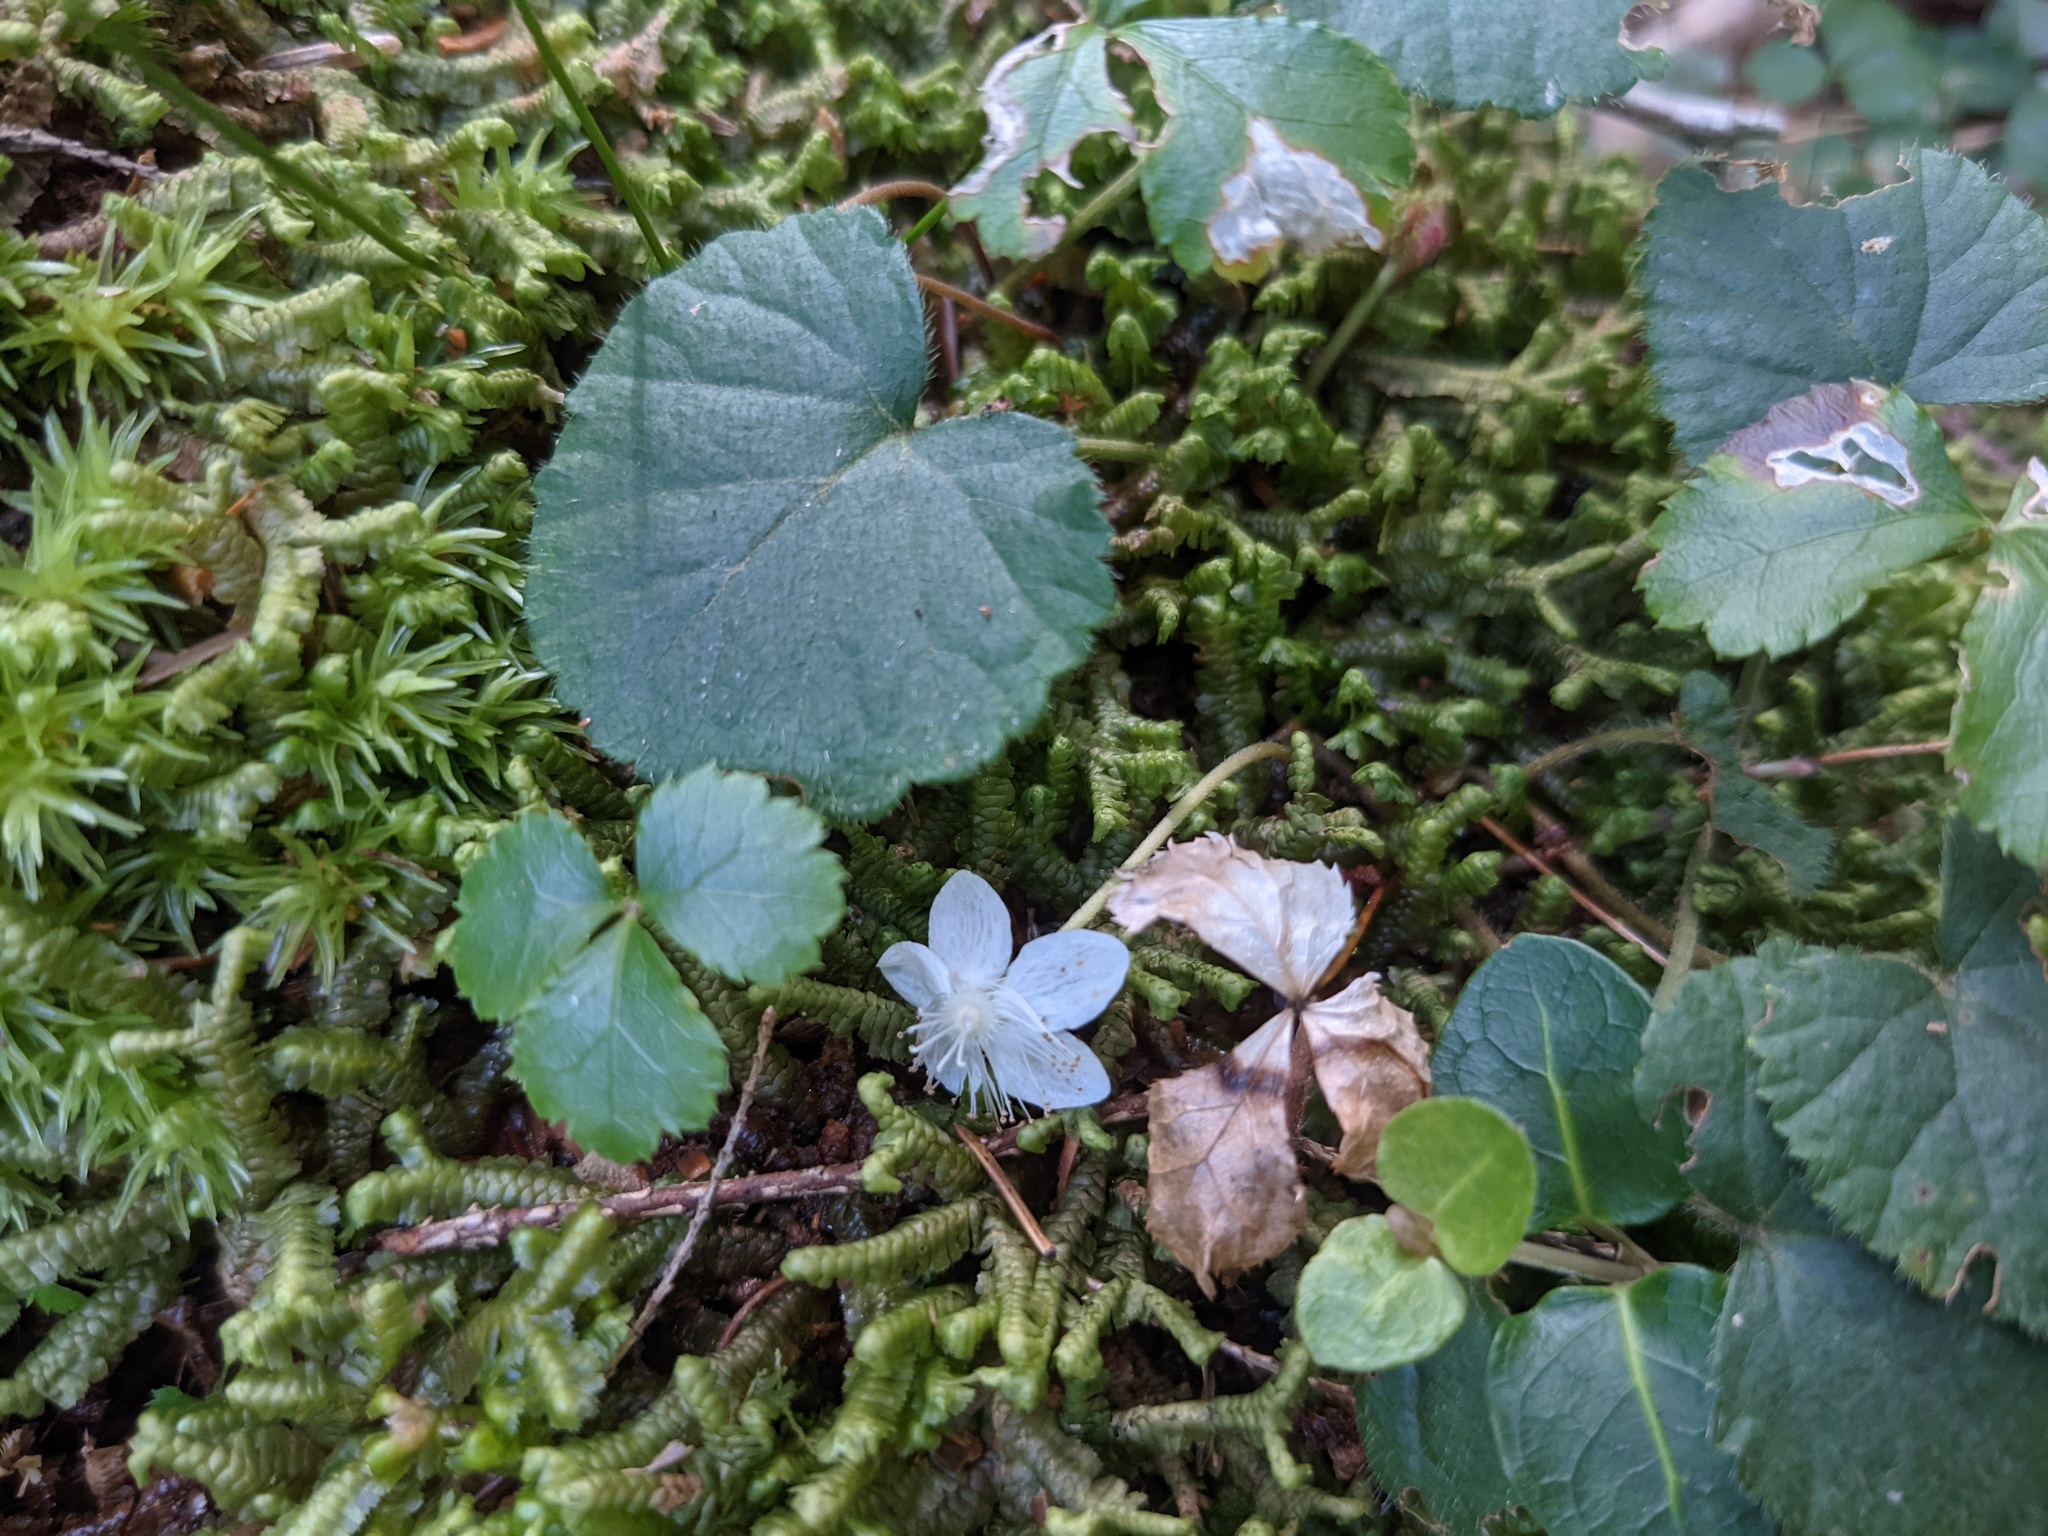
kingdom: Plantae
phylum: Tracheophyta
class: Magnoliopsida
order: Rosales
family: Rosaceae
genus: Dalibarda
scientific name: Dalibarda repens
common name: Dewdrop
